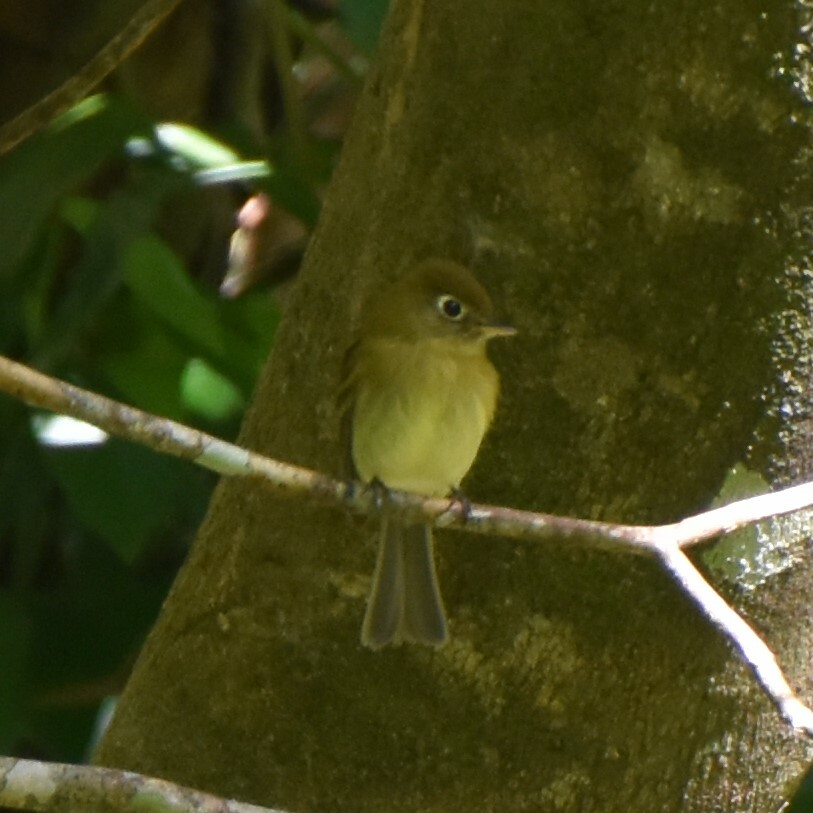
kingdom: Animalia
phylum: Chordata
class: Aves
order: Passeriformes
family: Tyrannidae
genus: Empidonax
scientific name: Empidonax flavescens
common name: Yellowish flycatcher
